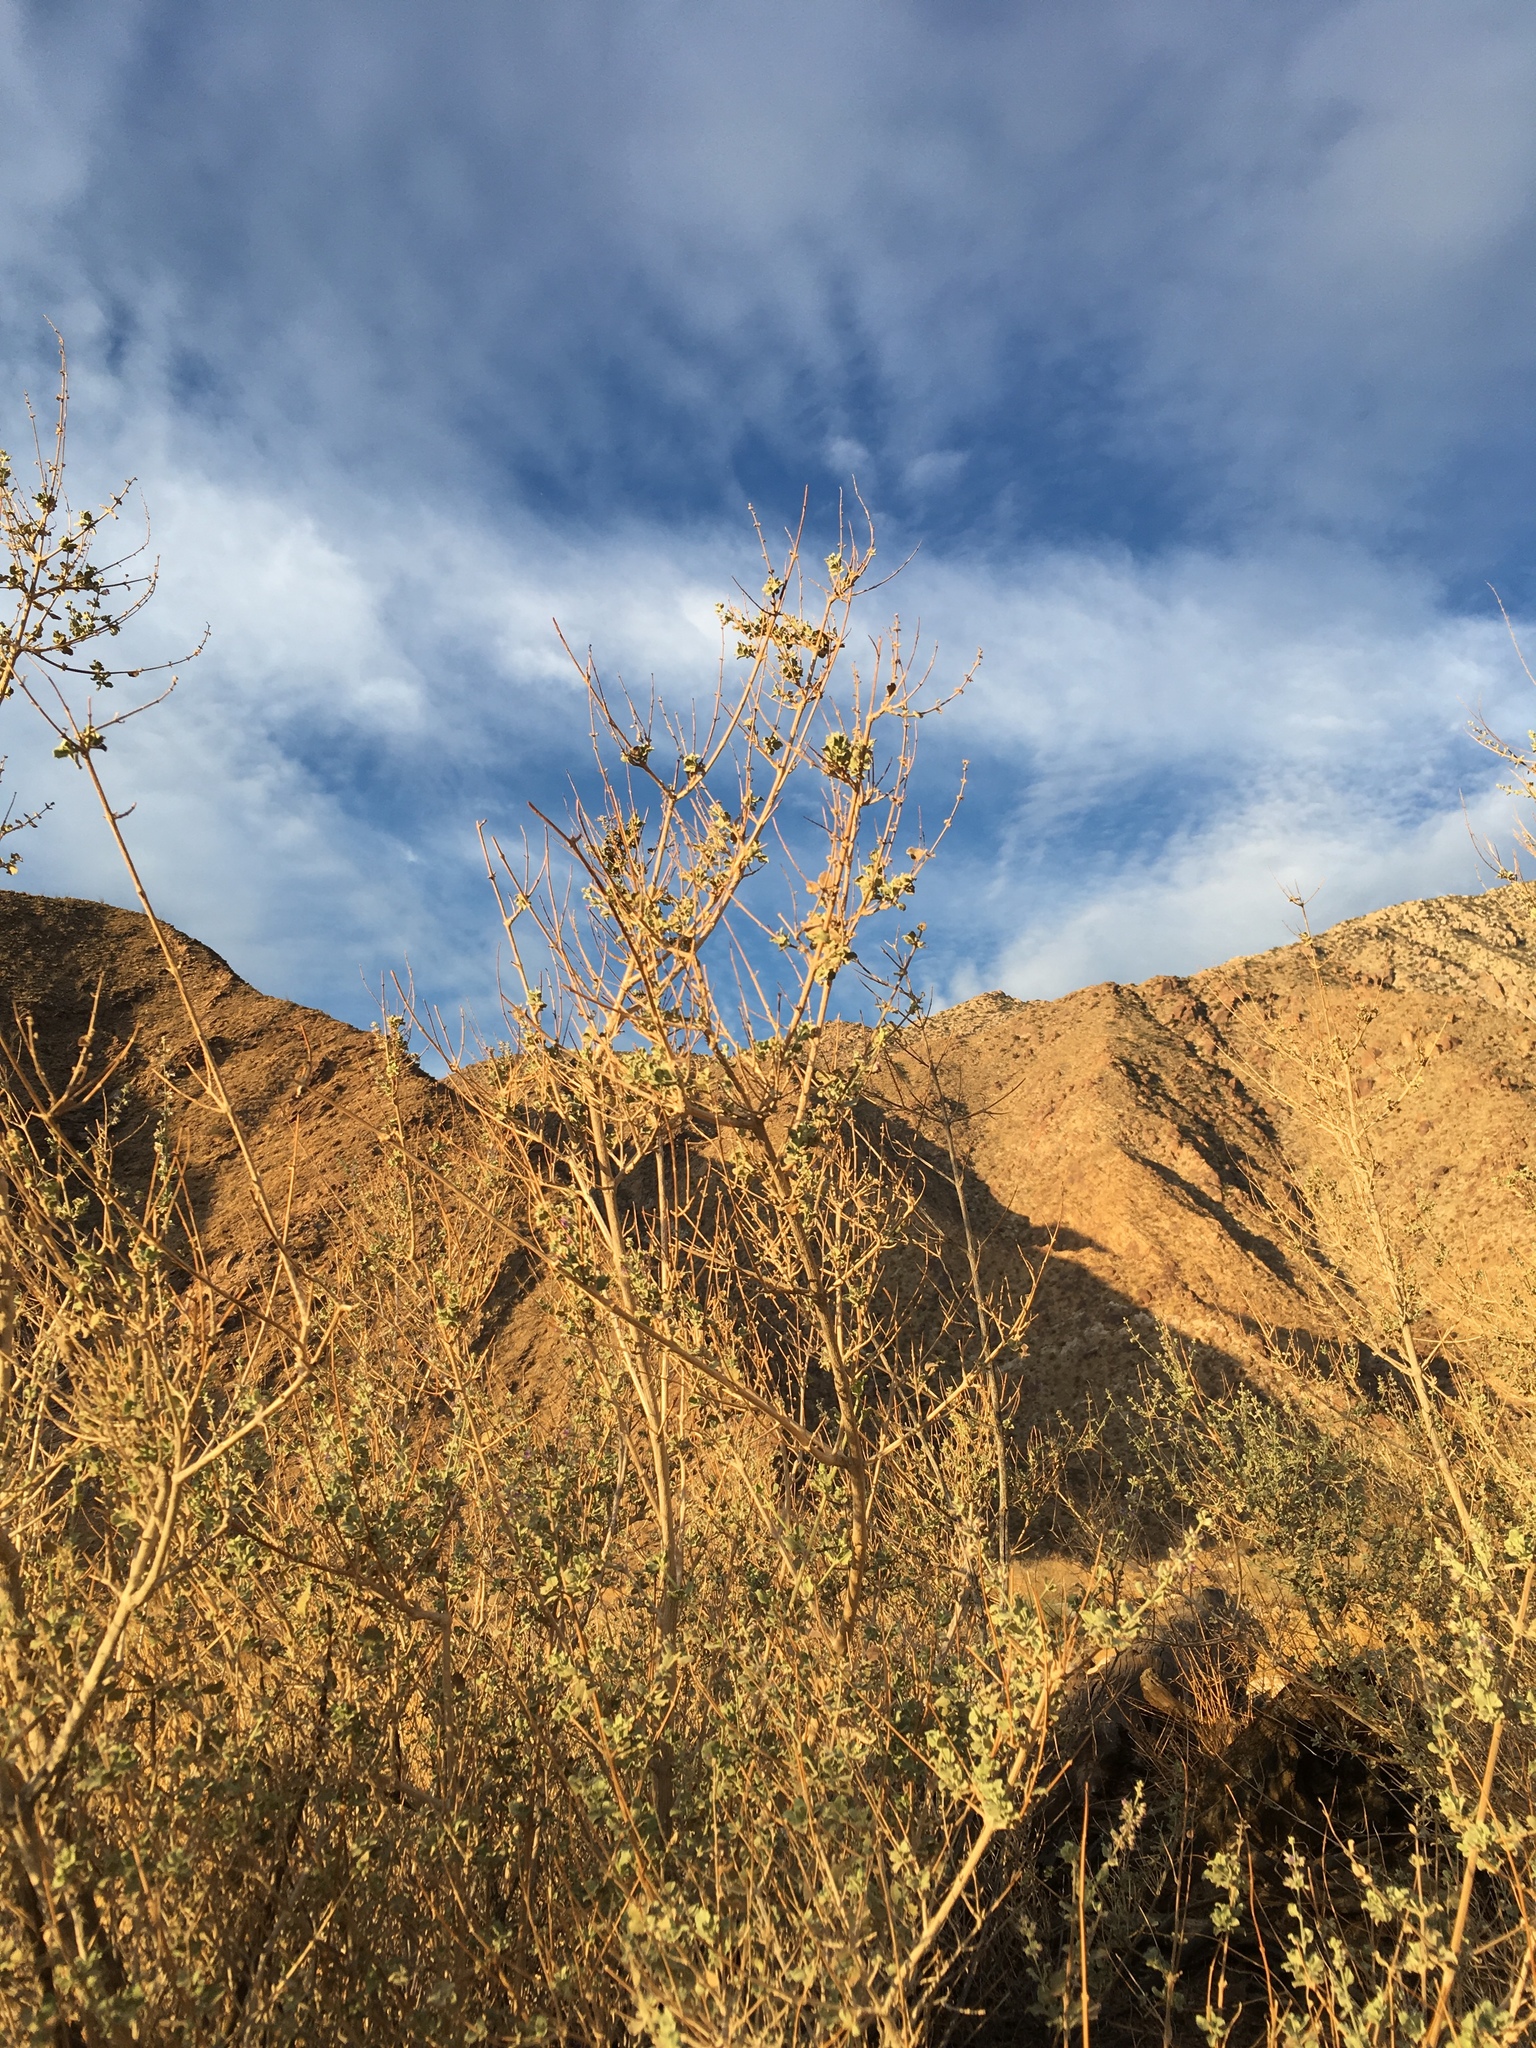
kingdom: Plantae
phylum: Tracheophyta
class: Magnoliopsida
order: Lamiales
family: Lamiaceae
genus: Condea
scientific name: Condea emoryi
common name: Chia
